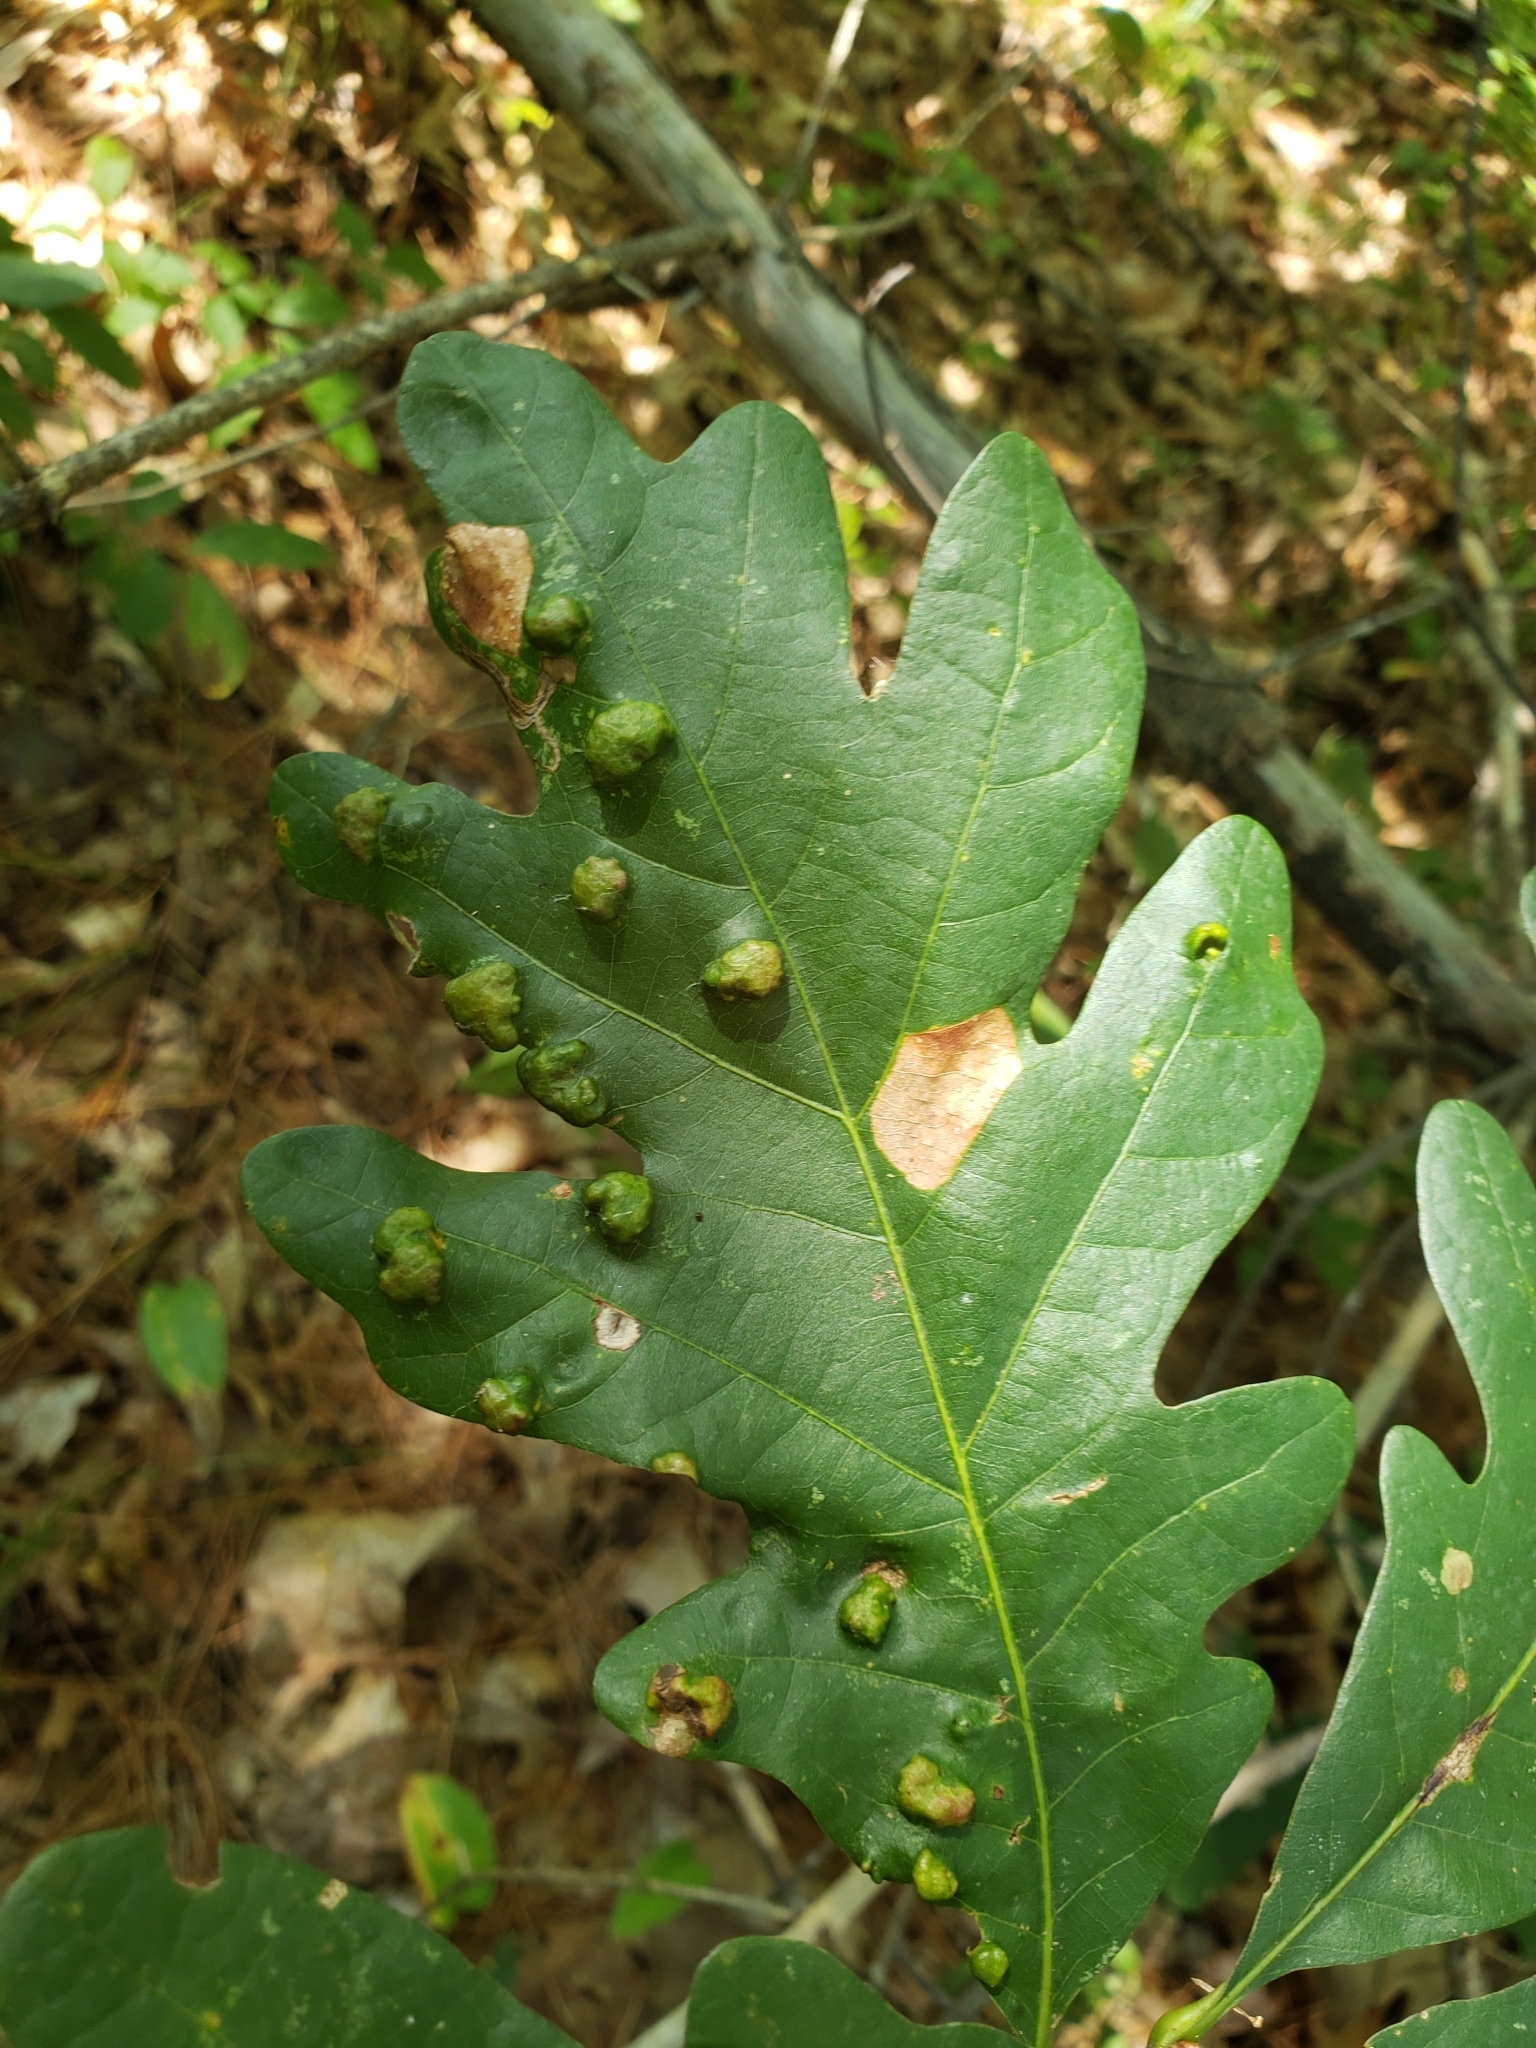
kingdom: Animalia
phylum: Arthropoda
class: Arachnida
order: Trombidiformes
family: Eriophyidae
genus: Aceria
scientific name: Aceria quercina
